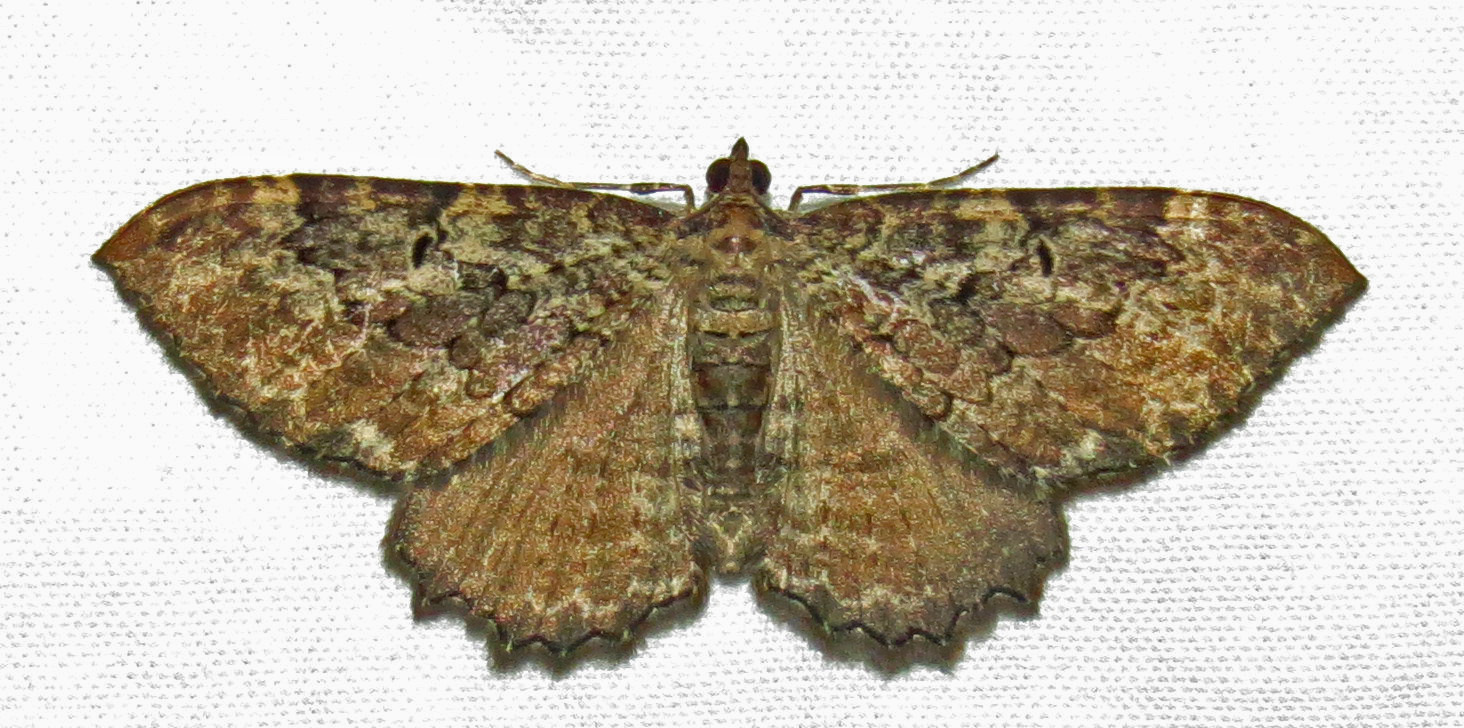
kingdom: Animalia
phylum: Arthropoda
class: Insecta
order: Lepidoptera
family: Geometridae
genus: Rheumaptera
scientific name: Rheumaptera
